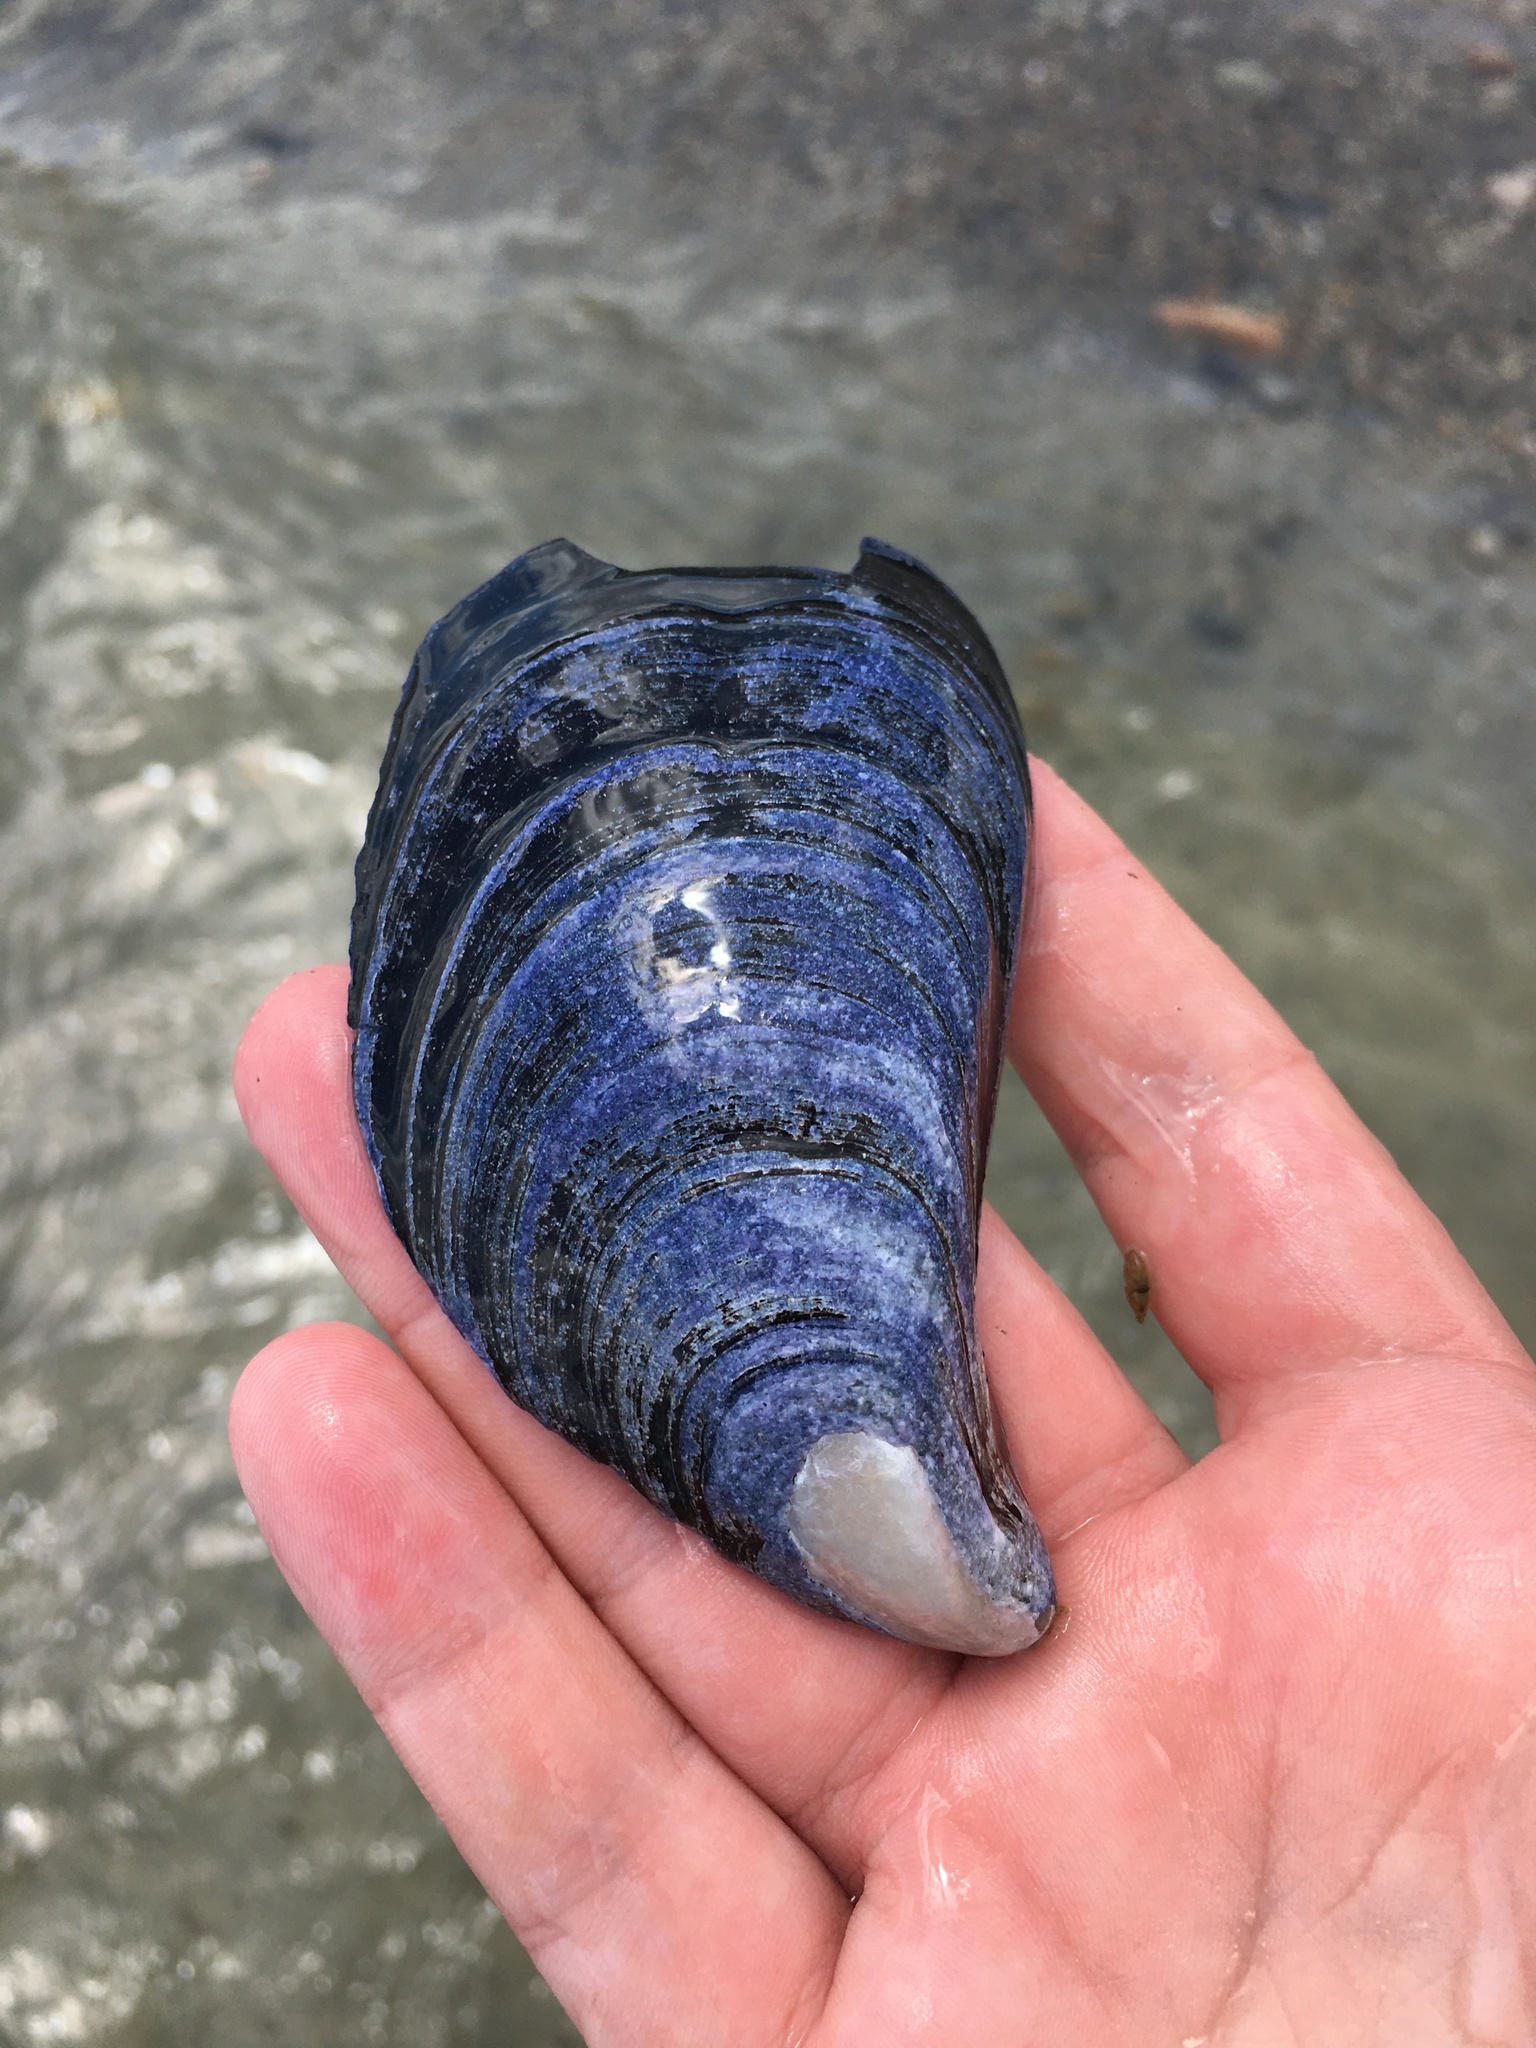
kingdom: Animalia
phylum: Mollusca
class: Bivalvia
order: Mytilida
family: Mytilidae
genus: Mytilus
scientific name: Mytilus edulis
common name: Blue mussel
